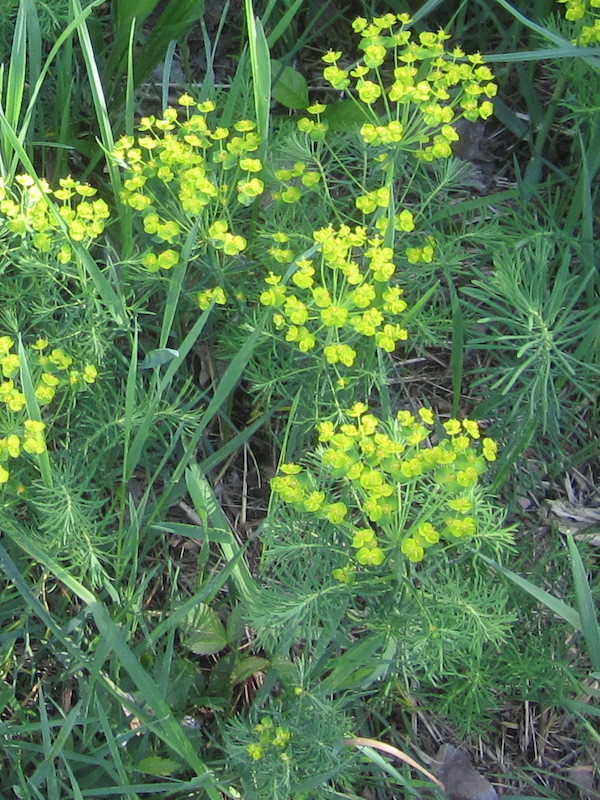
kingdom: Plantae
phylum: Tracheophyta
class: Magnoliopsida
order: Malpighiales
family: Euphorbiaceae
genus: Euphorbia
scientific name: Euphorbia cyparissias
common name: Cypress spurge
